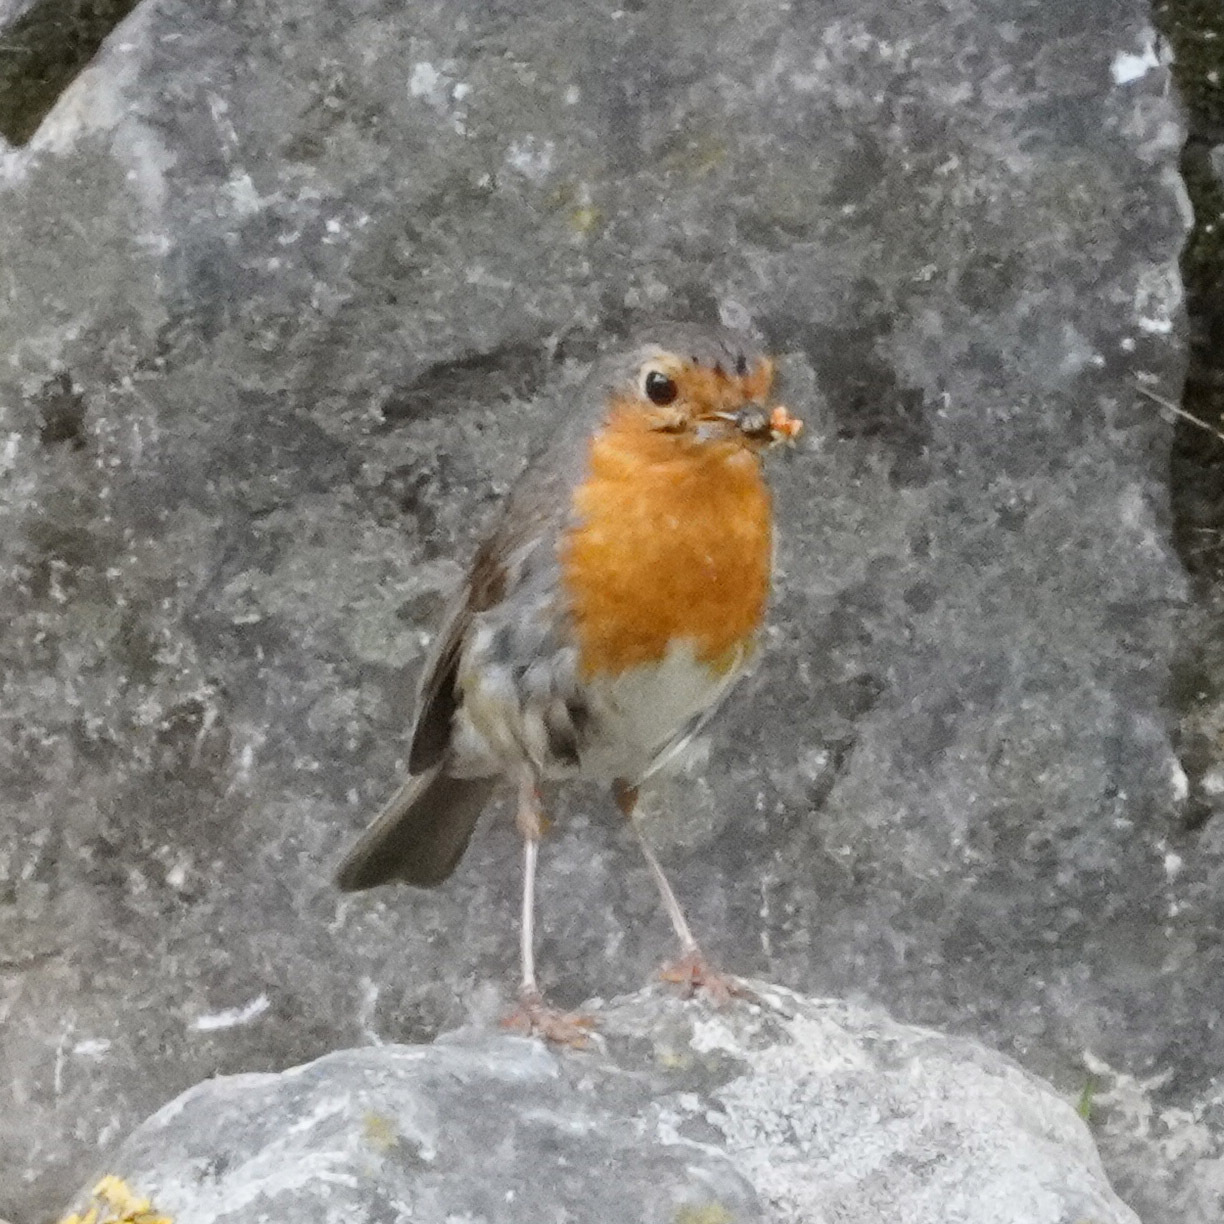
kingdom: Animalia
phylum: Chordata
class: Aves
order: Passeriformes
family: Muscicapidae
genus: Erithacus
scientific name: Erithacus rubecula
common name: European robin
